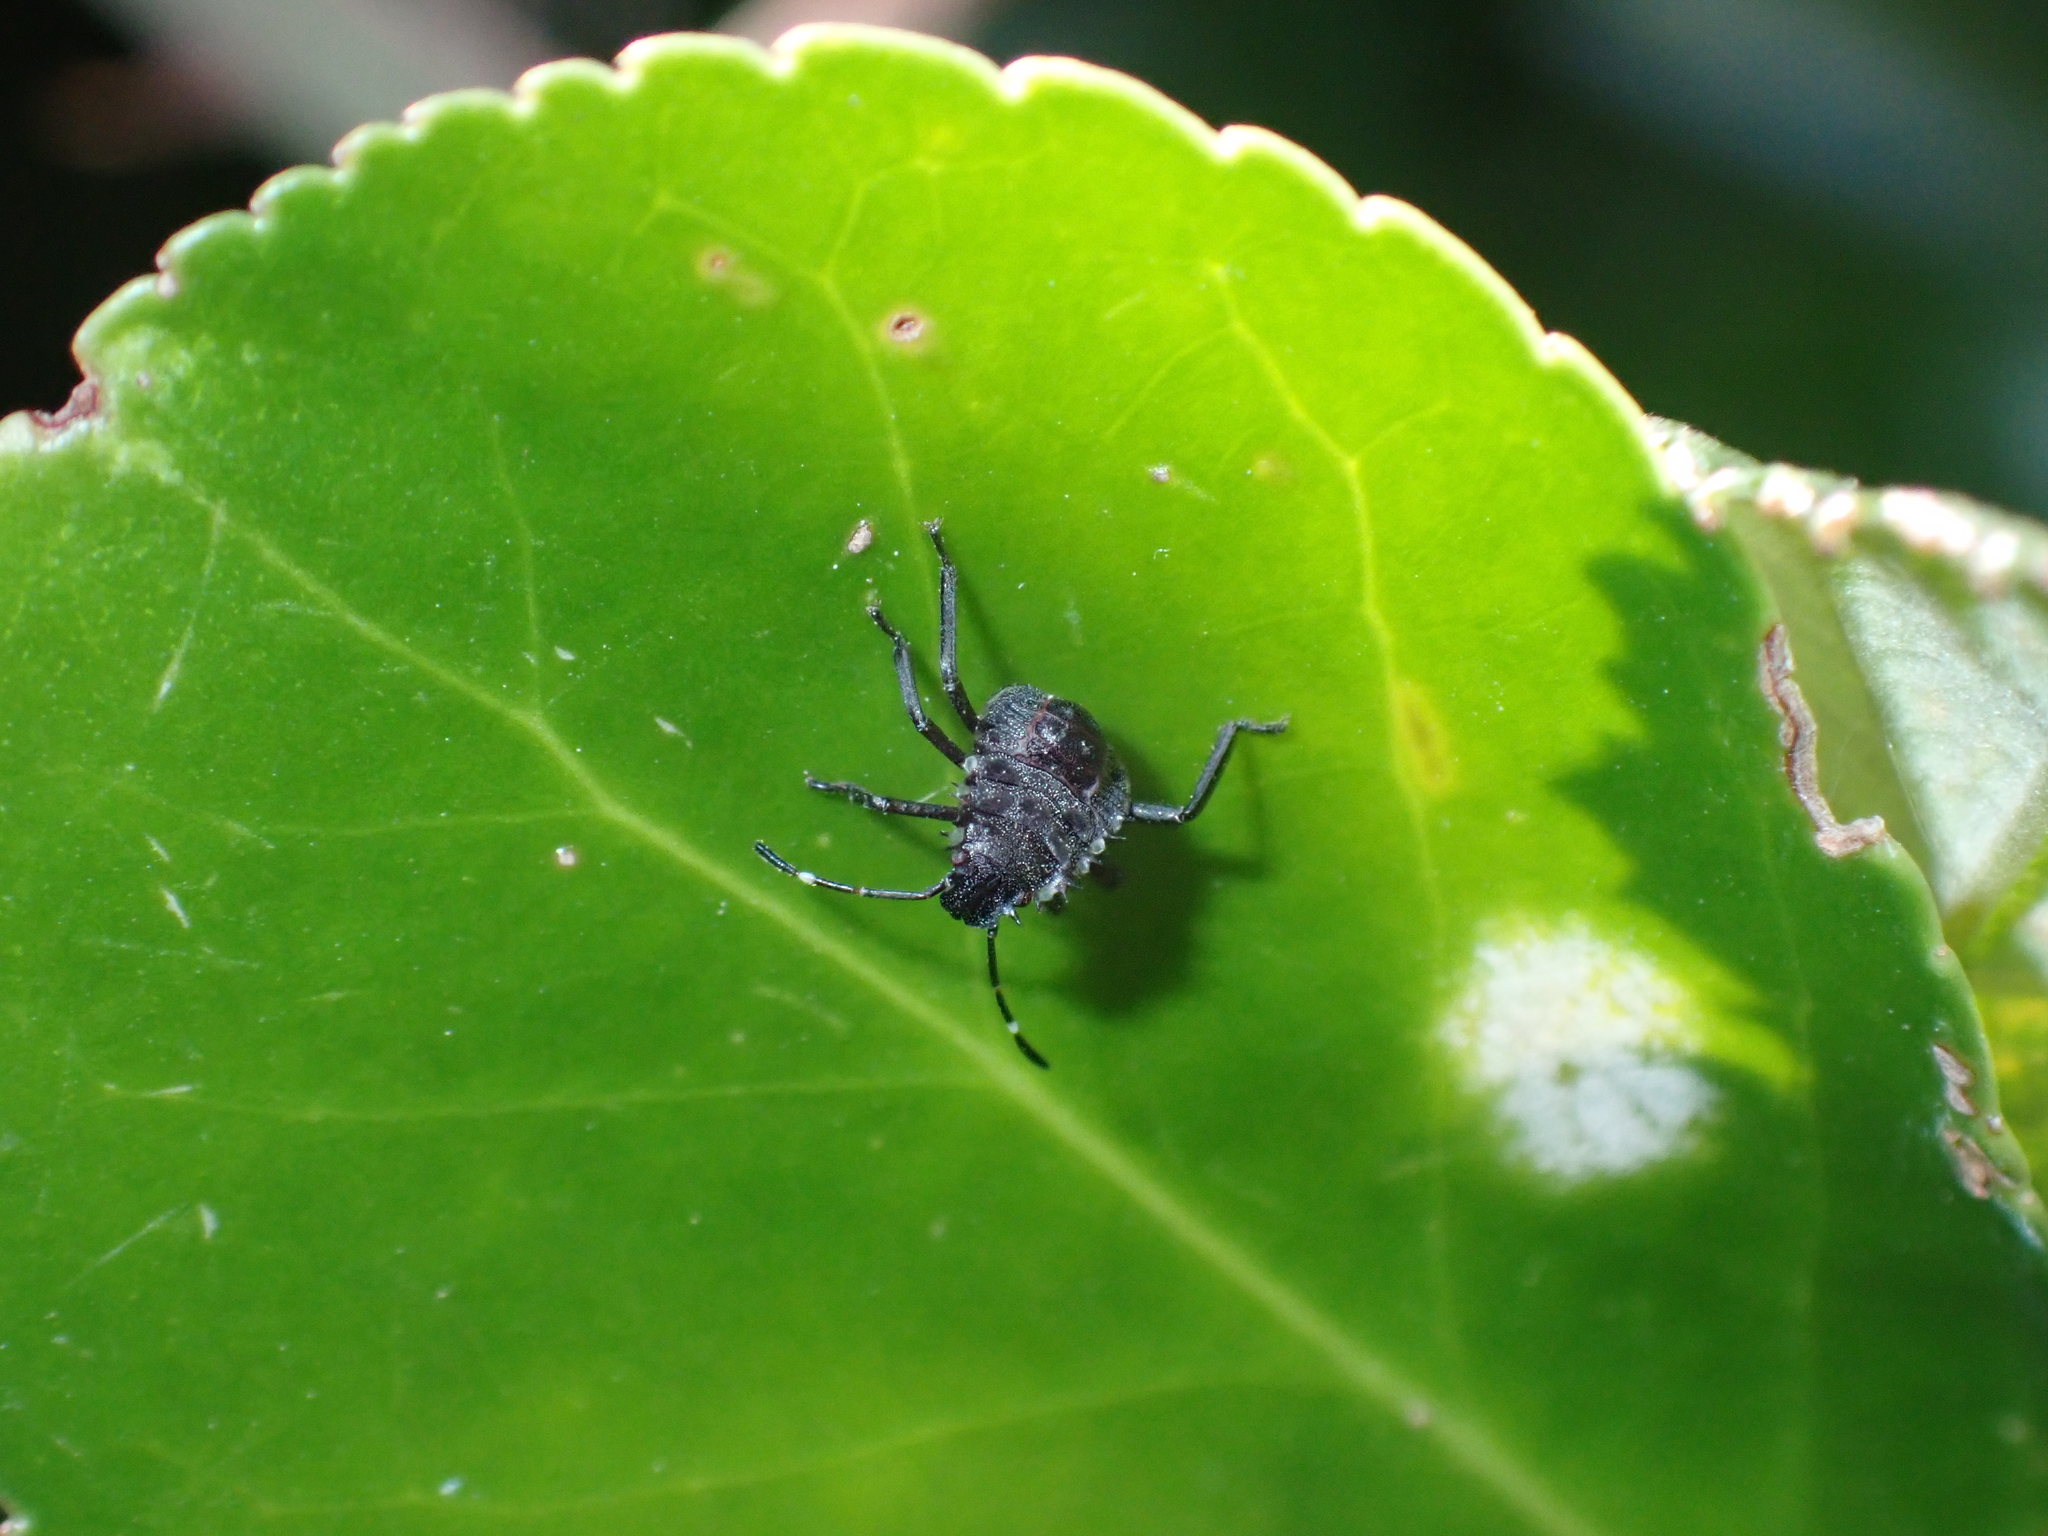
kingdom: Animalia
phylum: Arthropoda
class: Insecta
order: Hemiptera
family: Pentatomidae
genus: Halyomorpha
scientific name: Halyomorpha halys
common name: Brown marmorated stink bug
